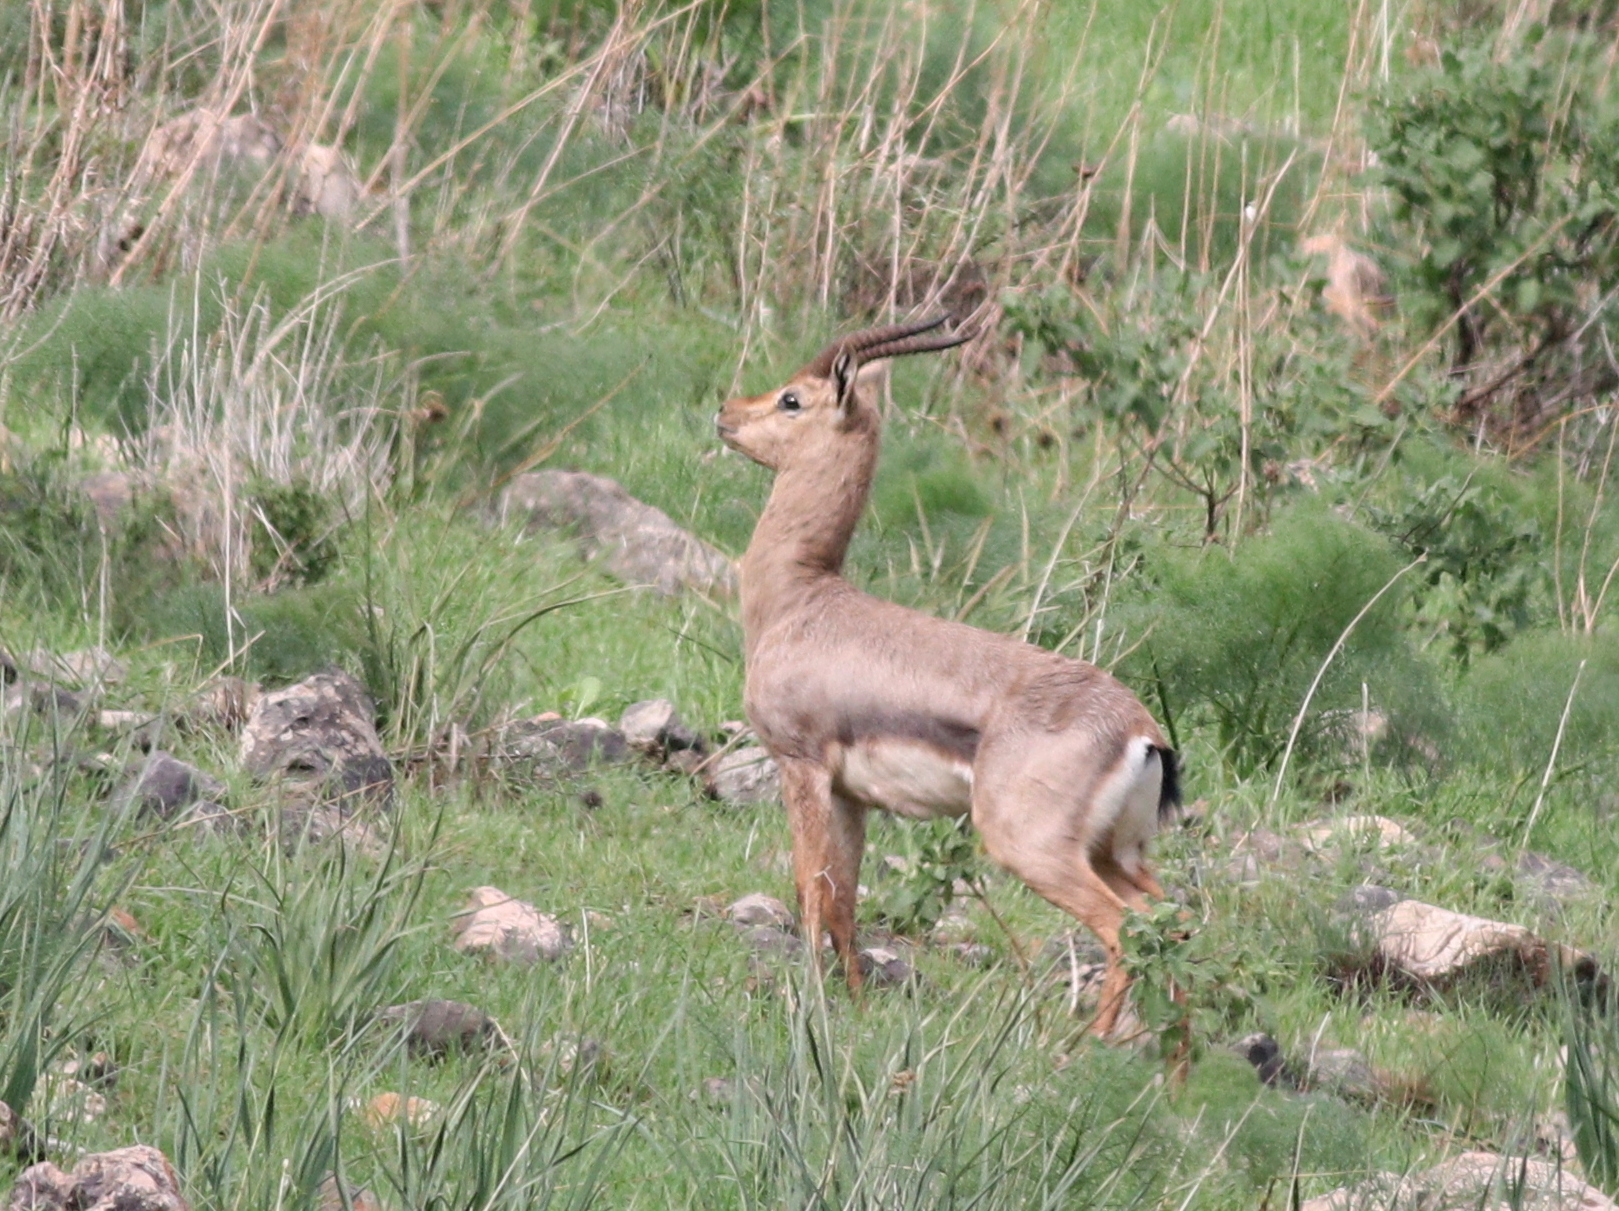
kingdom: Animalia
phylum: Chordata
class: Mammalia
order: Artiodactyla
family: Bovidae
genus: Gazella
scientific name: Gazella gazella
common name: Mountain gazelle
